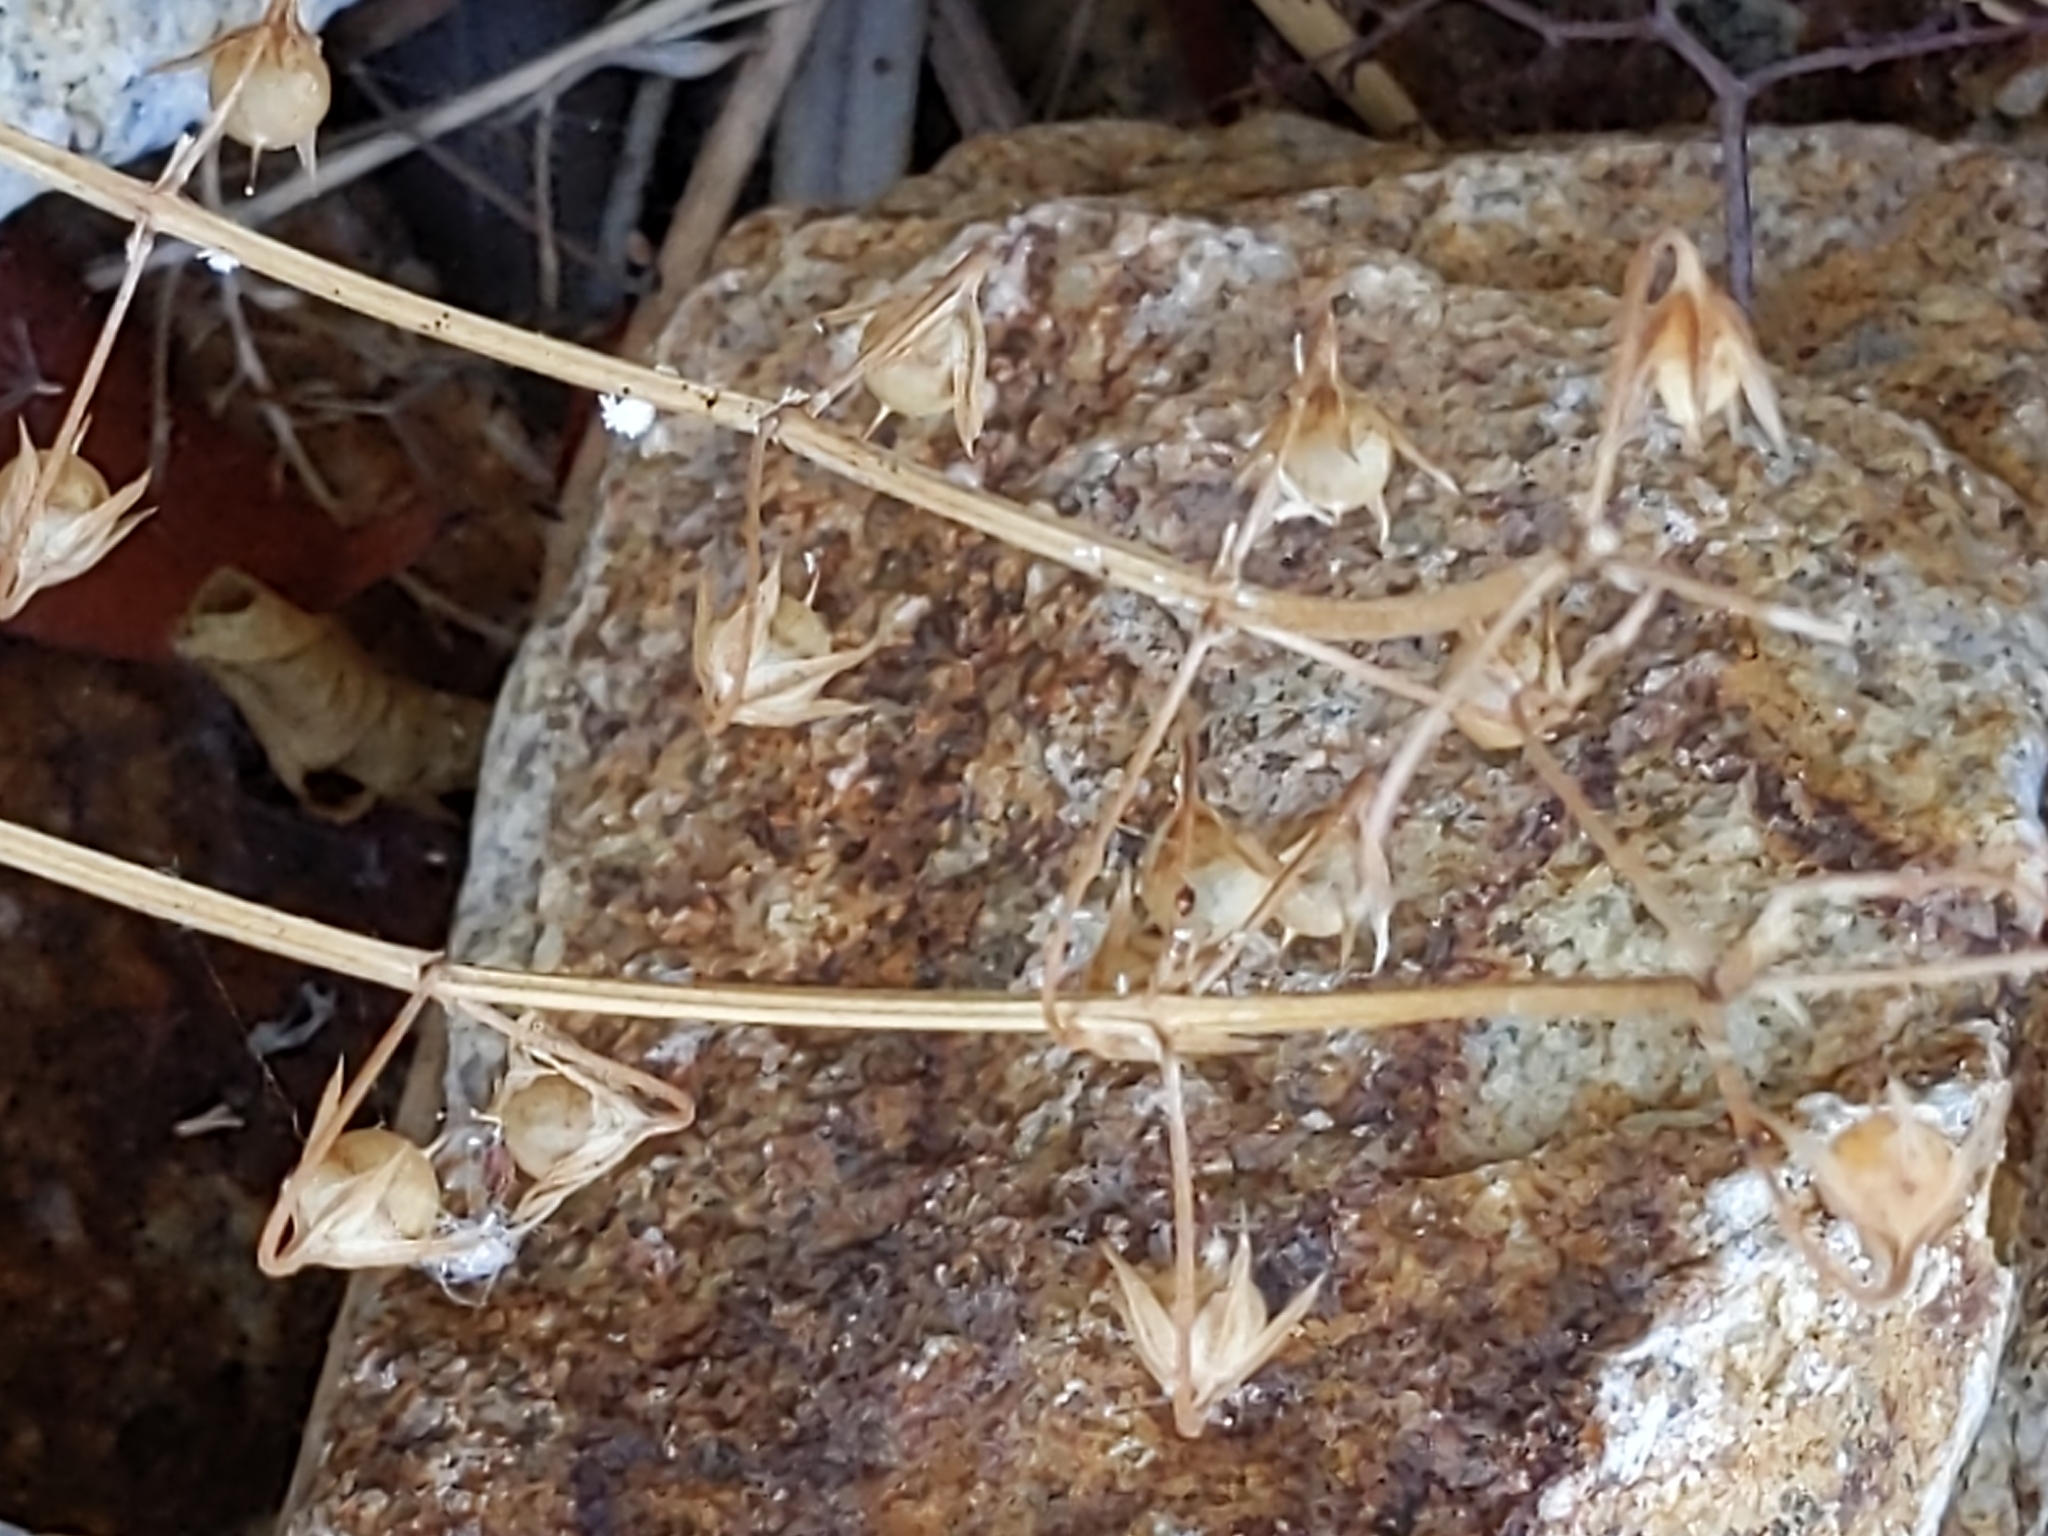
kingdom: Plantae
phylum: Tracheophyta
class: Magnoliopsida
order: Ericales
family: Primulaceae
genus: Lysimachia
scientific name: Lysimachia arvensis
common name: Scarlet pimpernel
